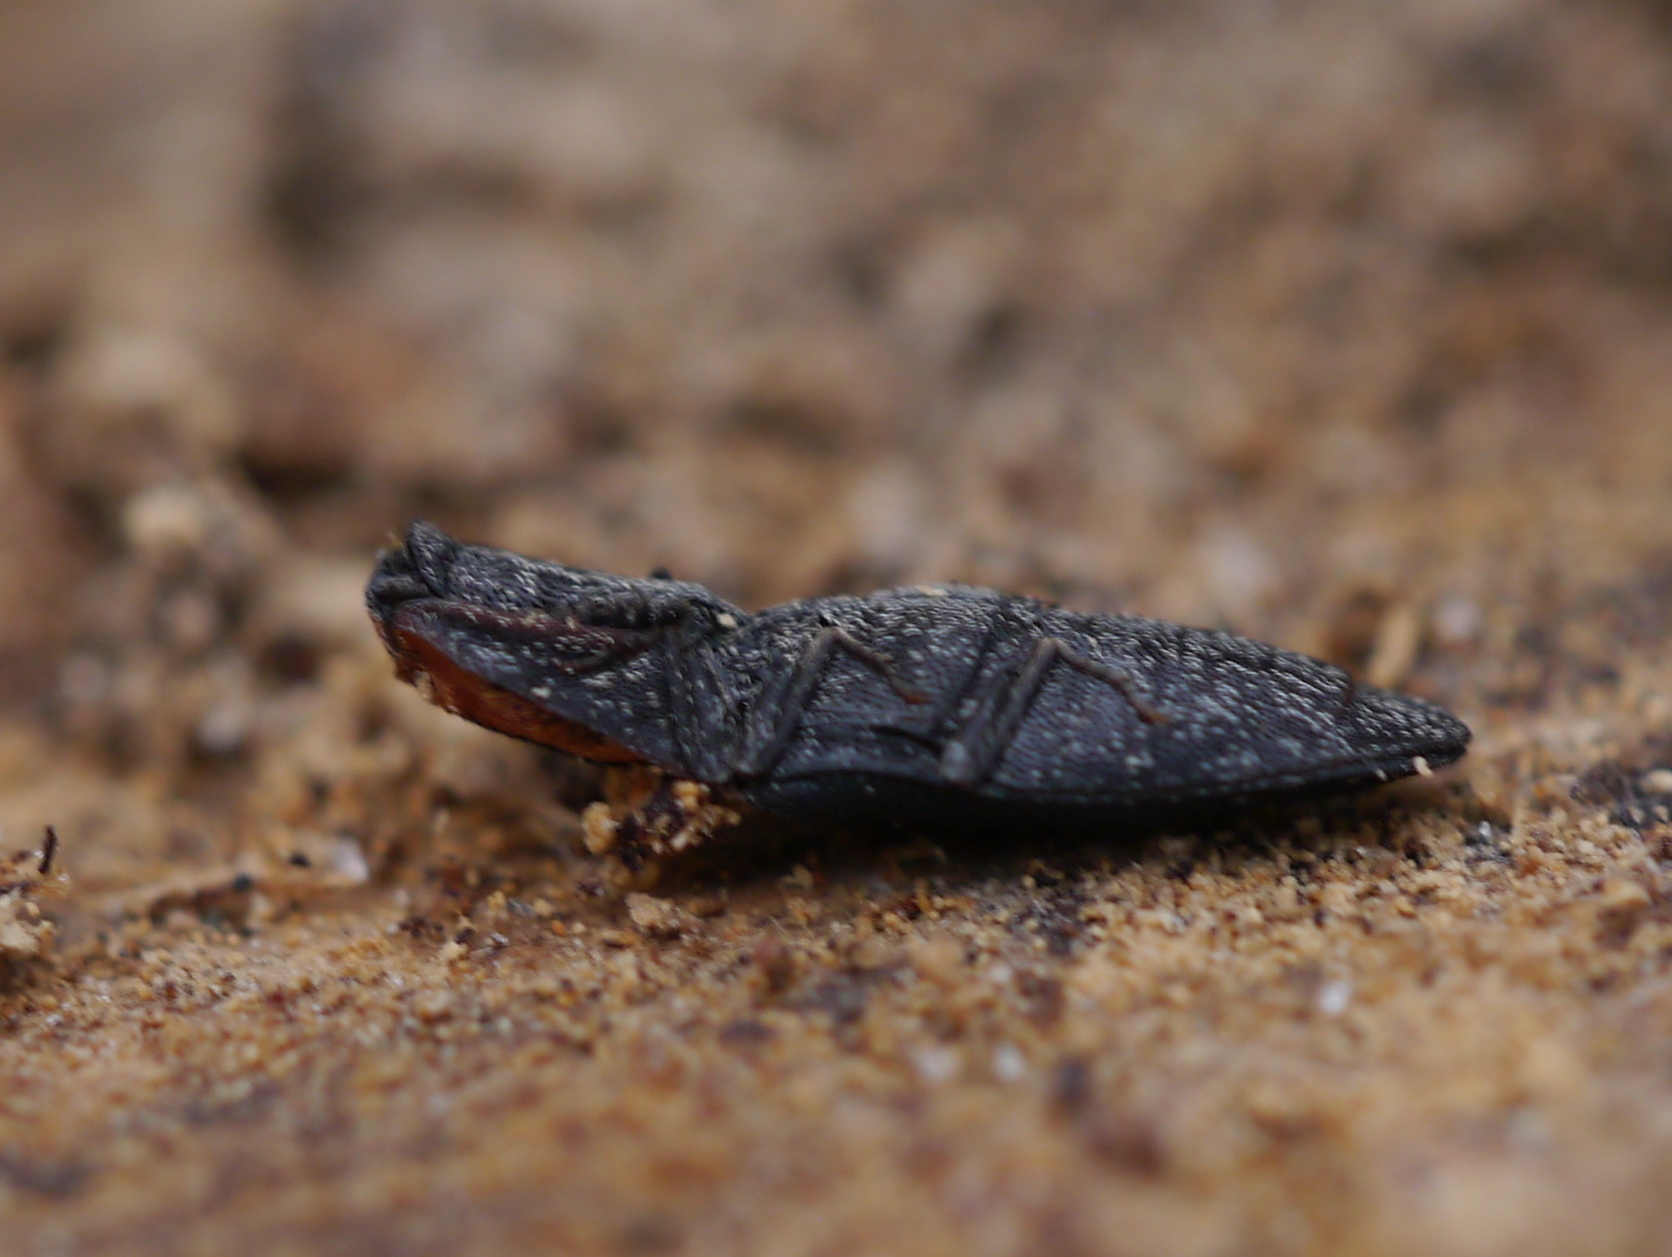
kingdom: Animalia
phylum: Arthropoda
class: Insecta
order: Coleoptera
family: Elateridae
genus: Lacon
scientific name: Lacon discoideus
